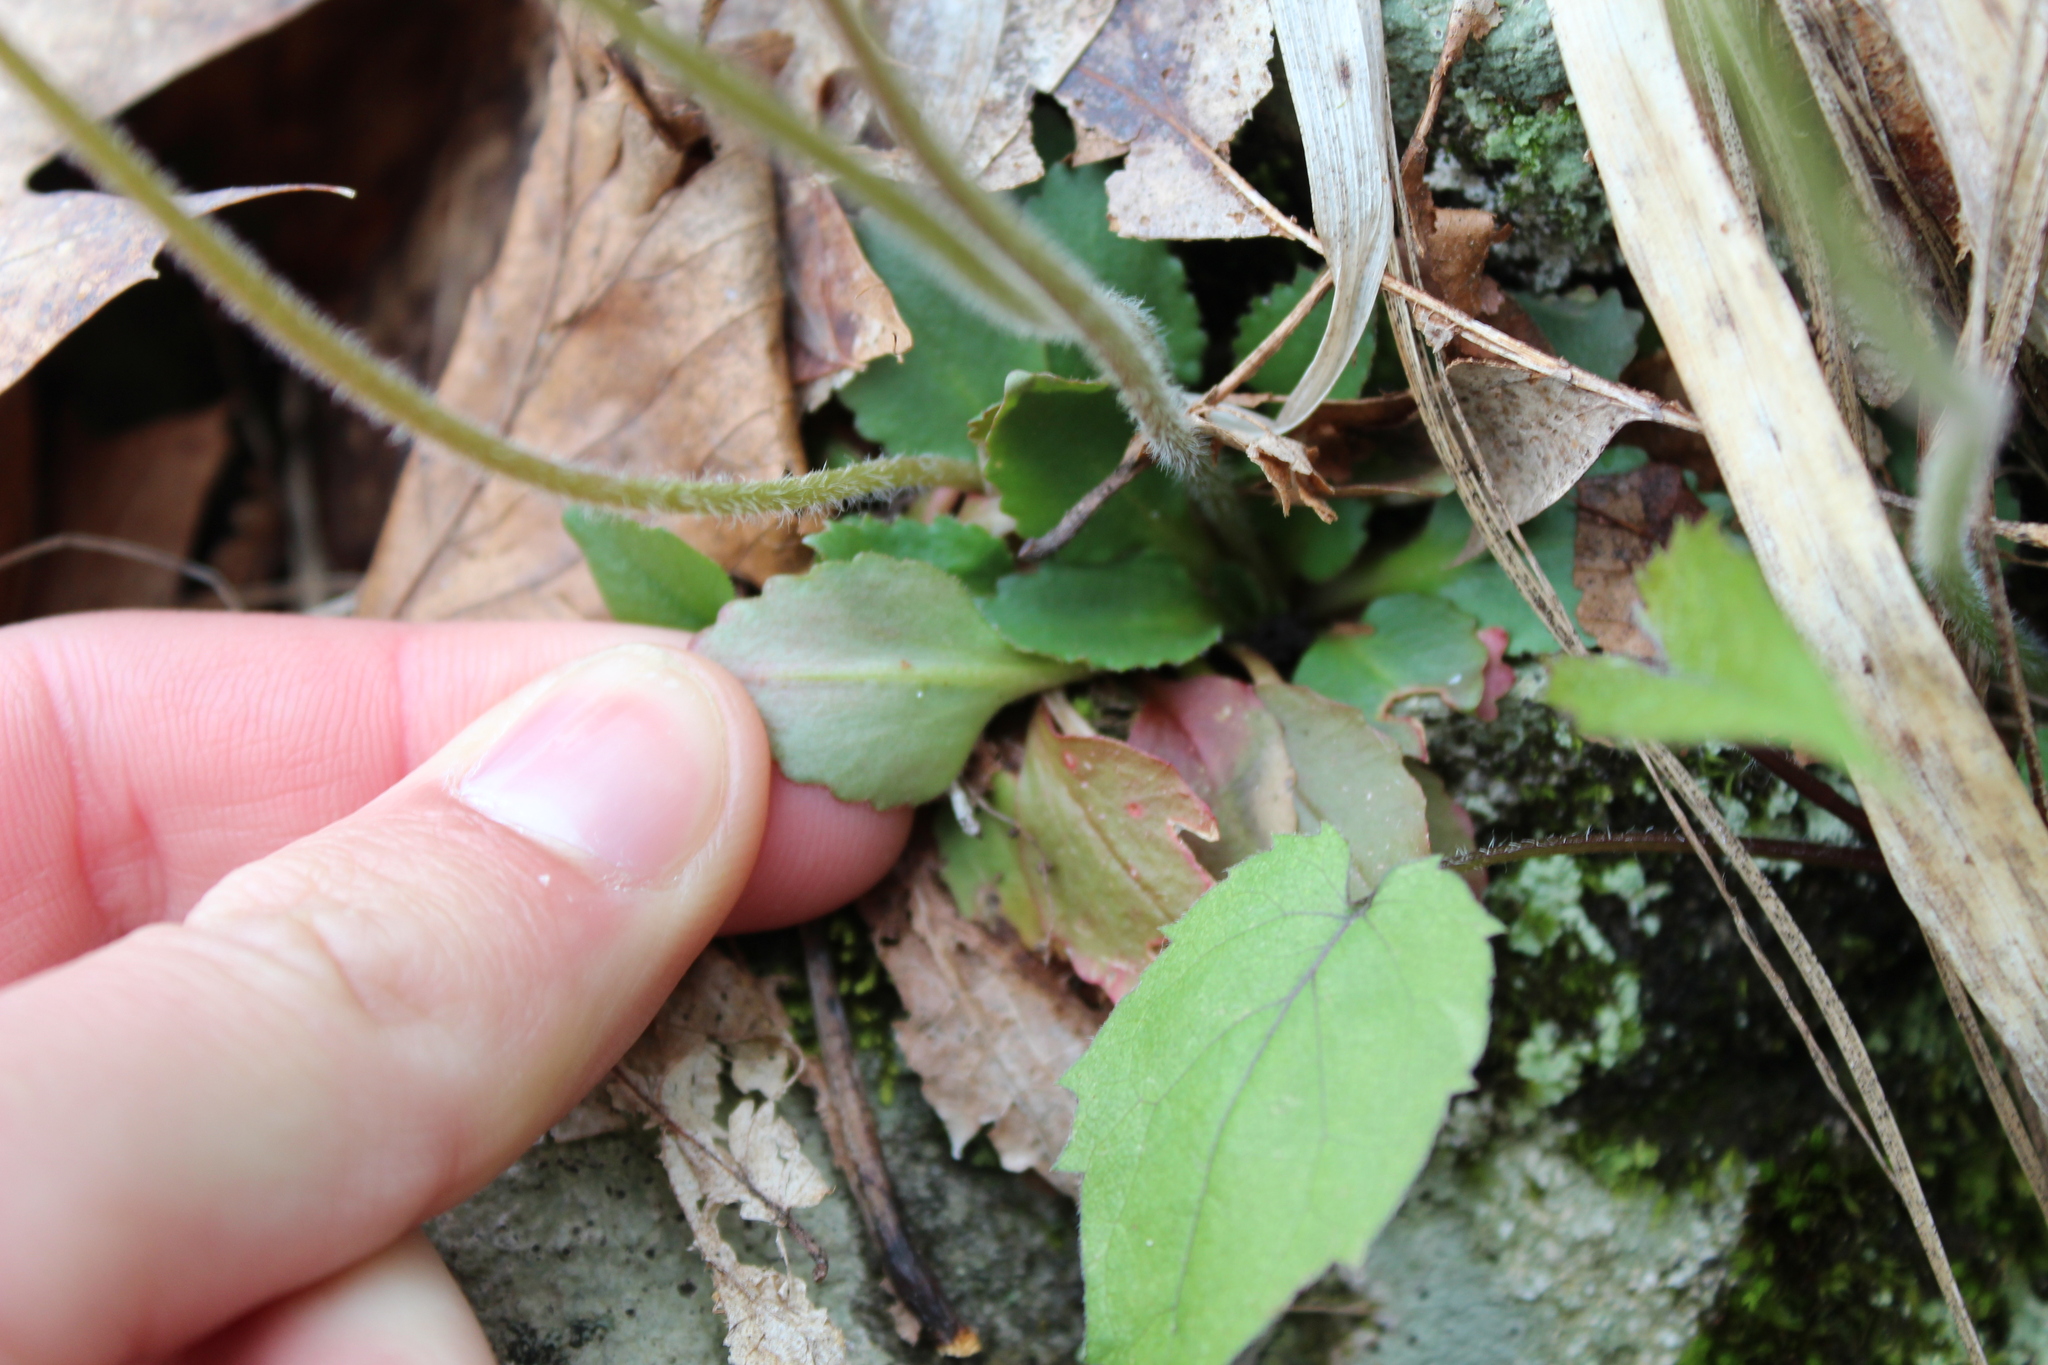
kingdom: Plantae
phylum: Tracheophyta
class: Magnoliopsida
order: Saxifragales
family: Saxifragaceae
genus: Micranthes
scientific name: Micranthes virginiensis
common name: Early saxifrage
